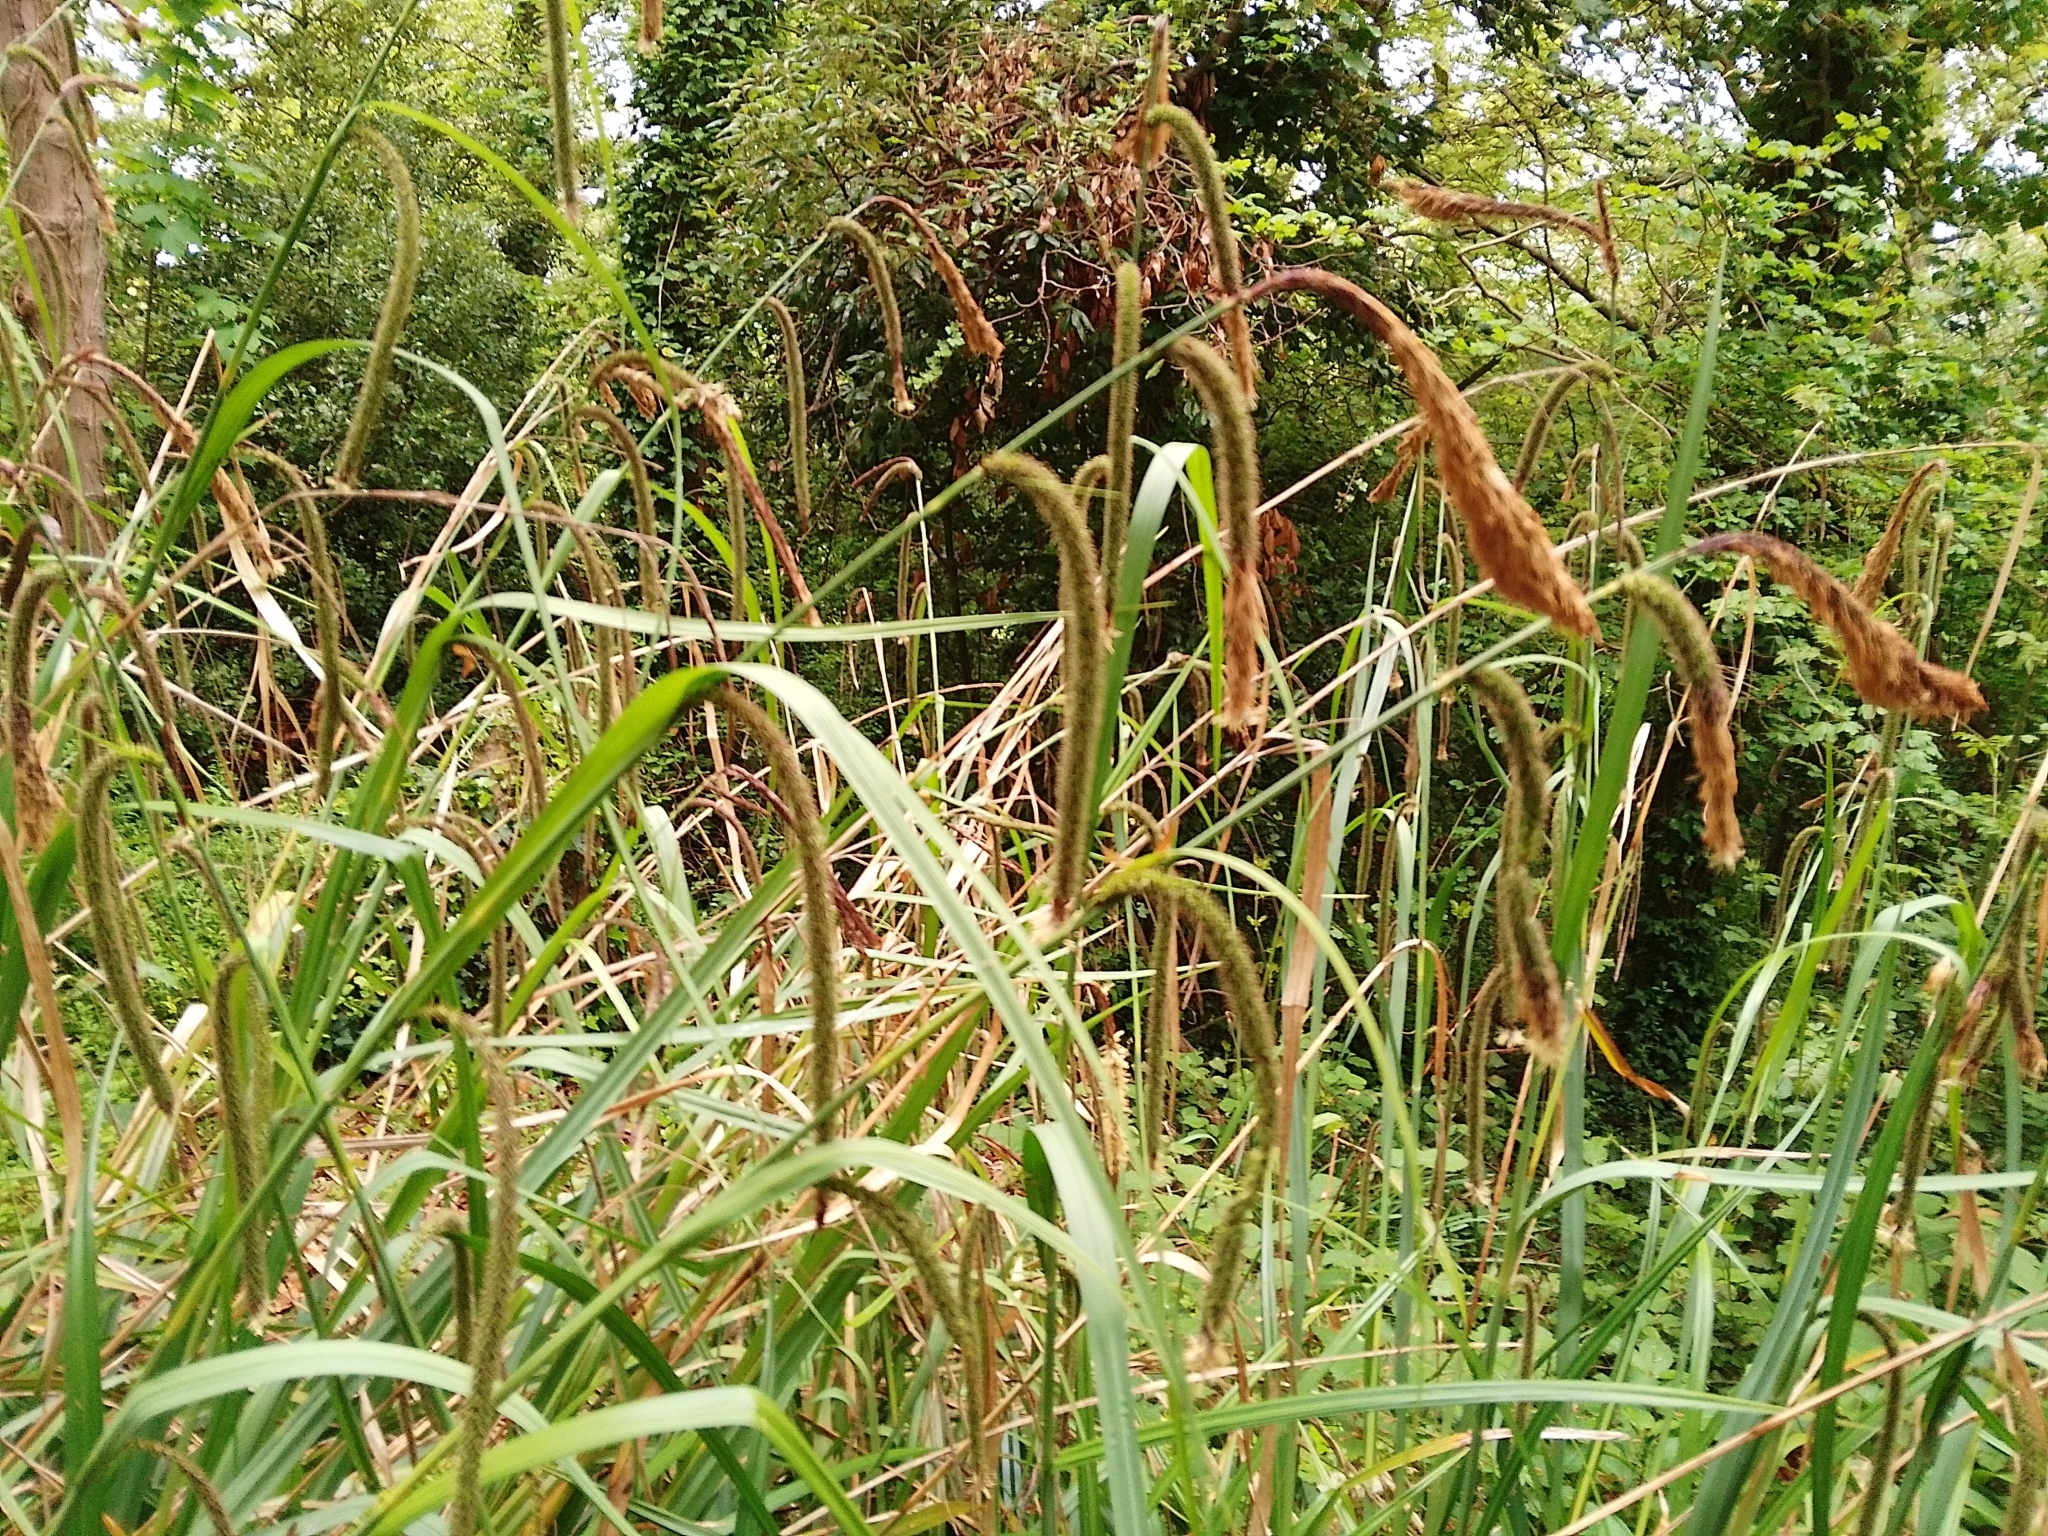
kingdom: Plantae
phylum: Tracheophyta
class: Liliopsida
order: Poales
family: Cyperaceae
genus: Carex
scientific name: Carex pendula
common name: Pendulous sedge
